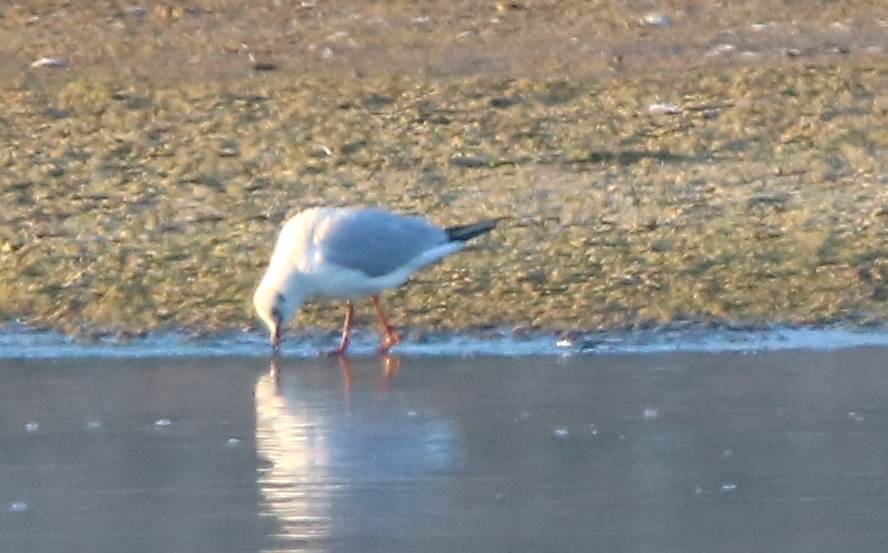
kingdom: Animalia
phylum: Chordata
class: Aves
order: Charadriiformes
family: Laridae
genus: Chroicocephalus
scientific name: Chroicocephalus ridibundus
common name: Black-headed gull
